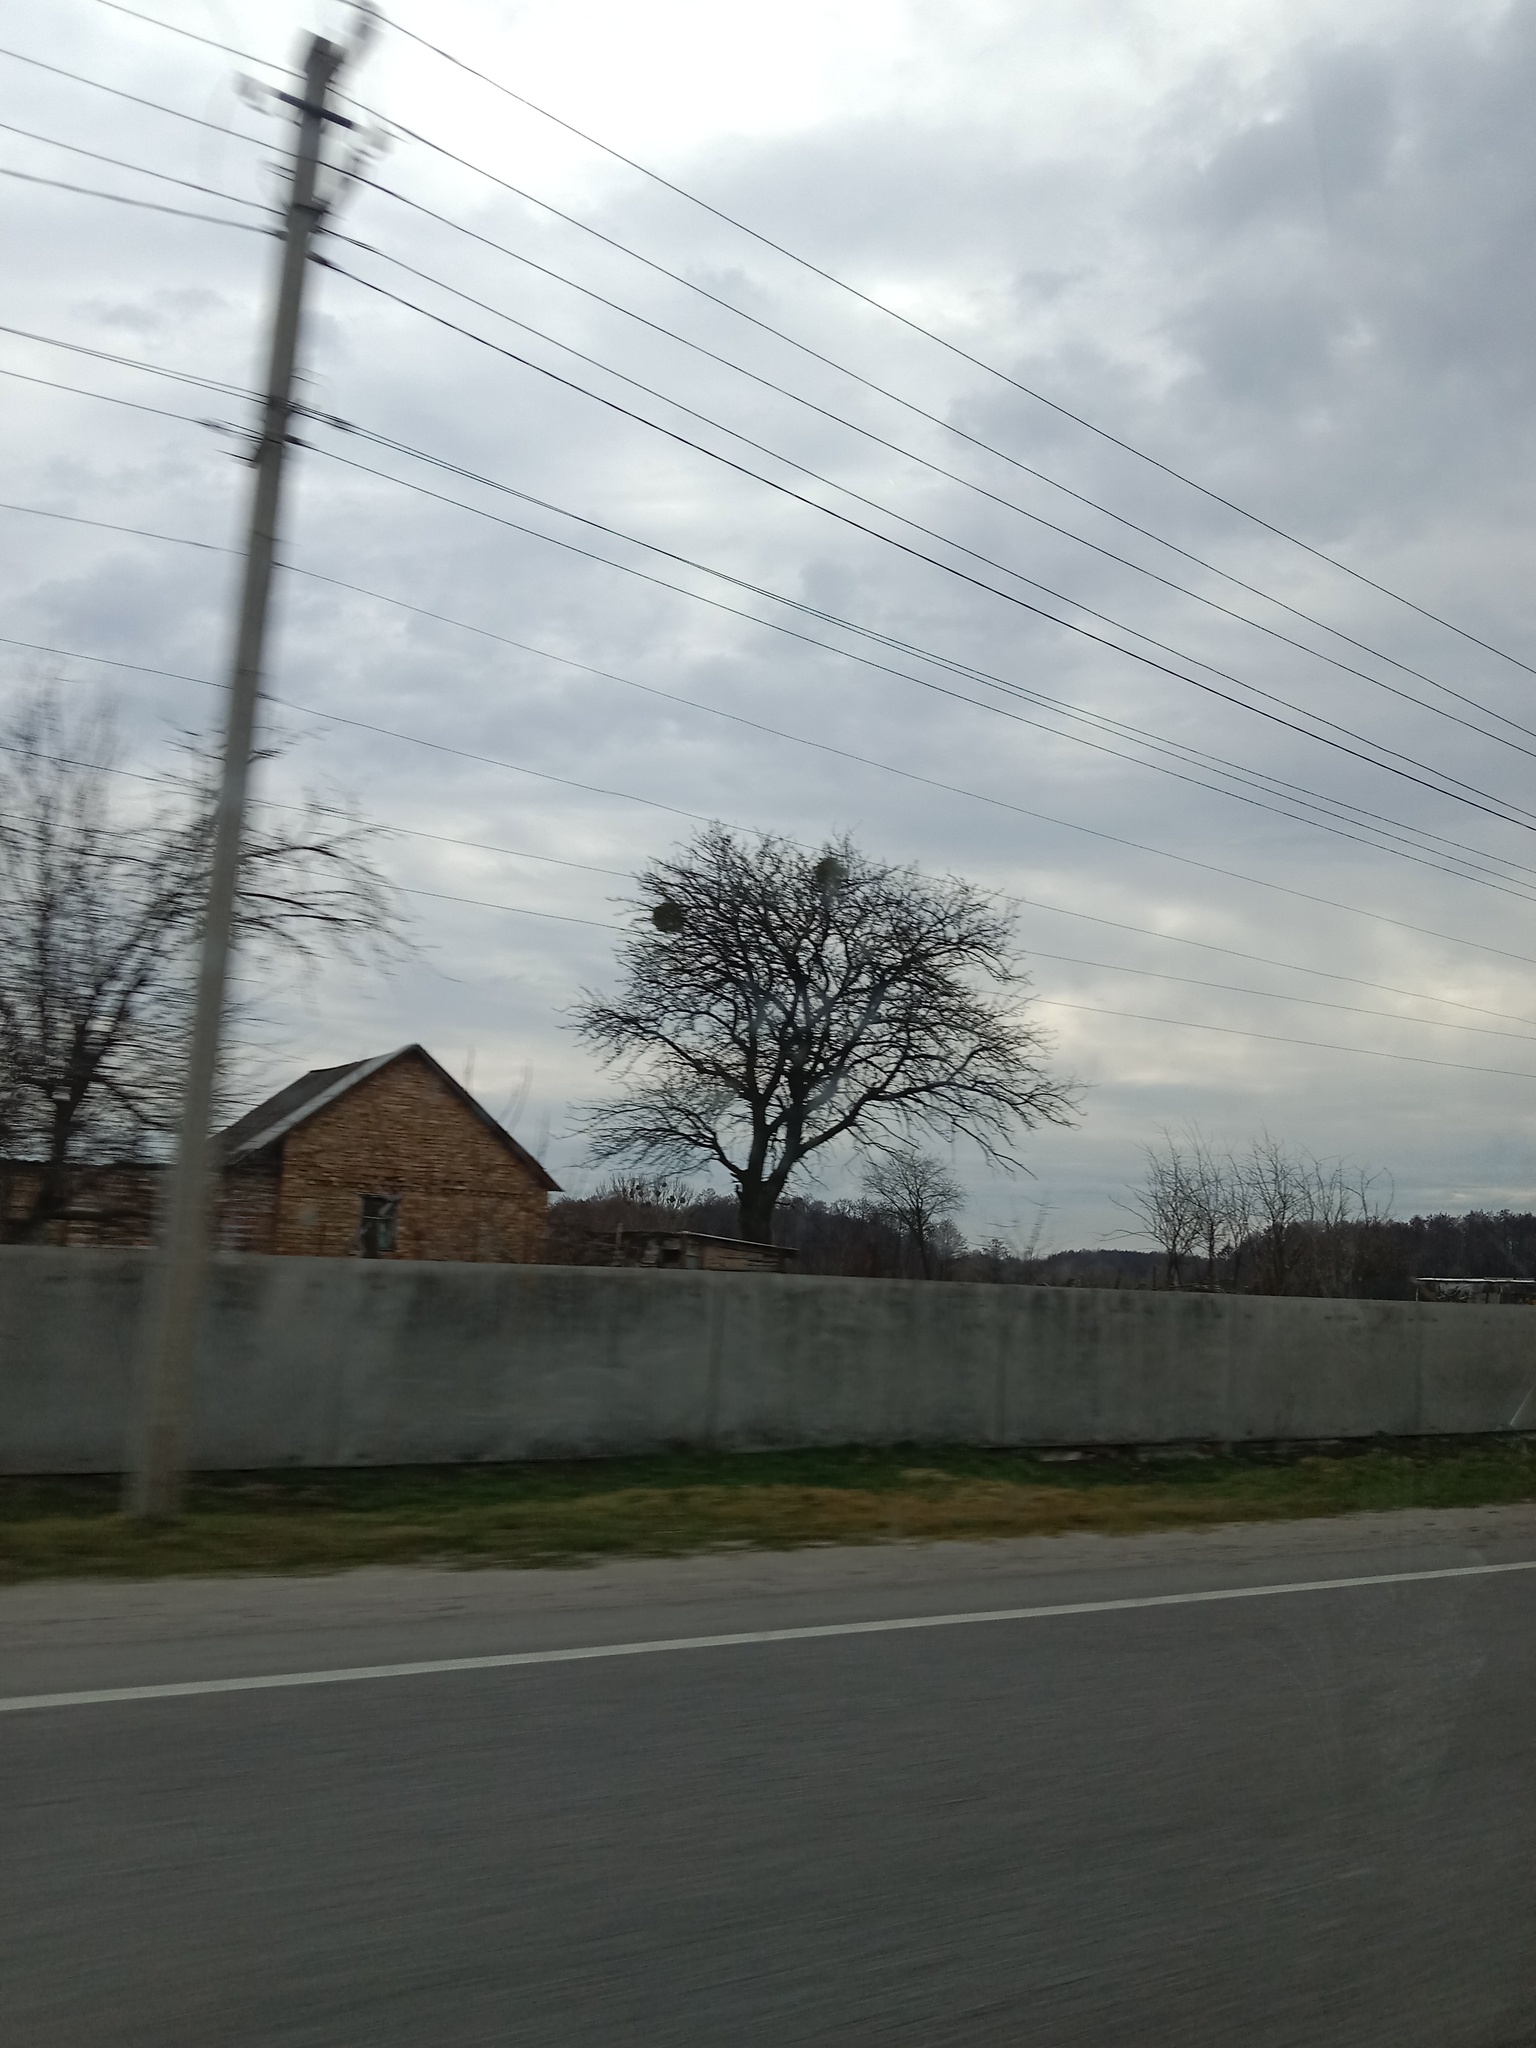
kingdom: Plantae
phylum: Tracheophyta
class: Magnoliopsida
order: Santalales
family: Viscaceae
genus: Viscum
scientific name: Viscum album
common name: Mistletoe
